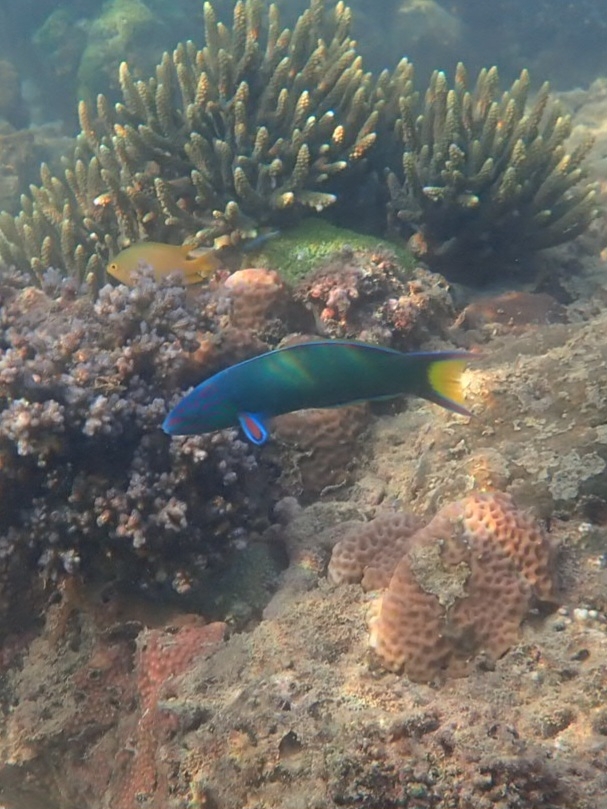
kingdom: Animalia
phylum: Chordata
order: Perciformes
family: Labridae
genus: Thalassoma
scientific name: Thalassoma lunare
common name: Blue wrasse
